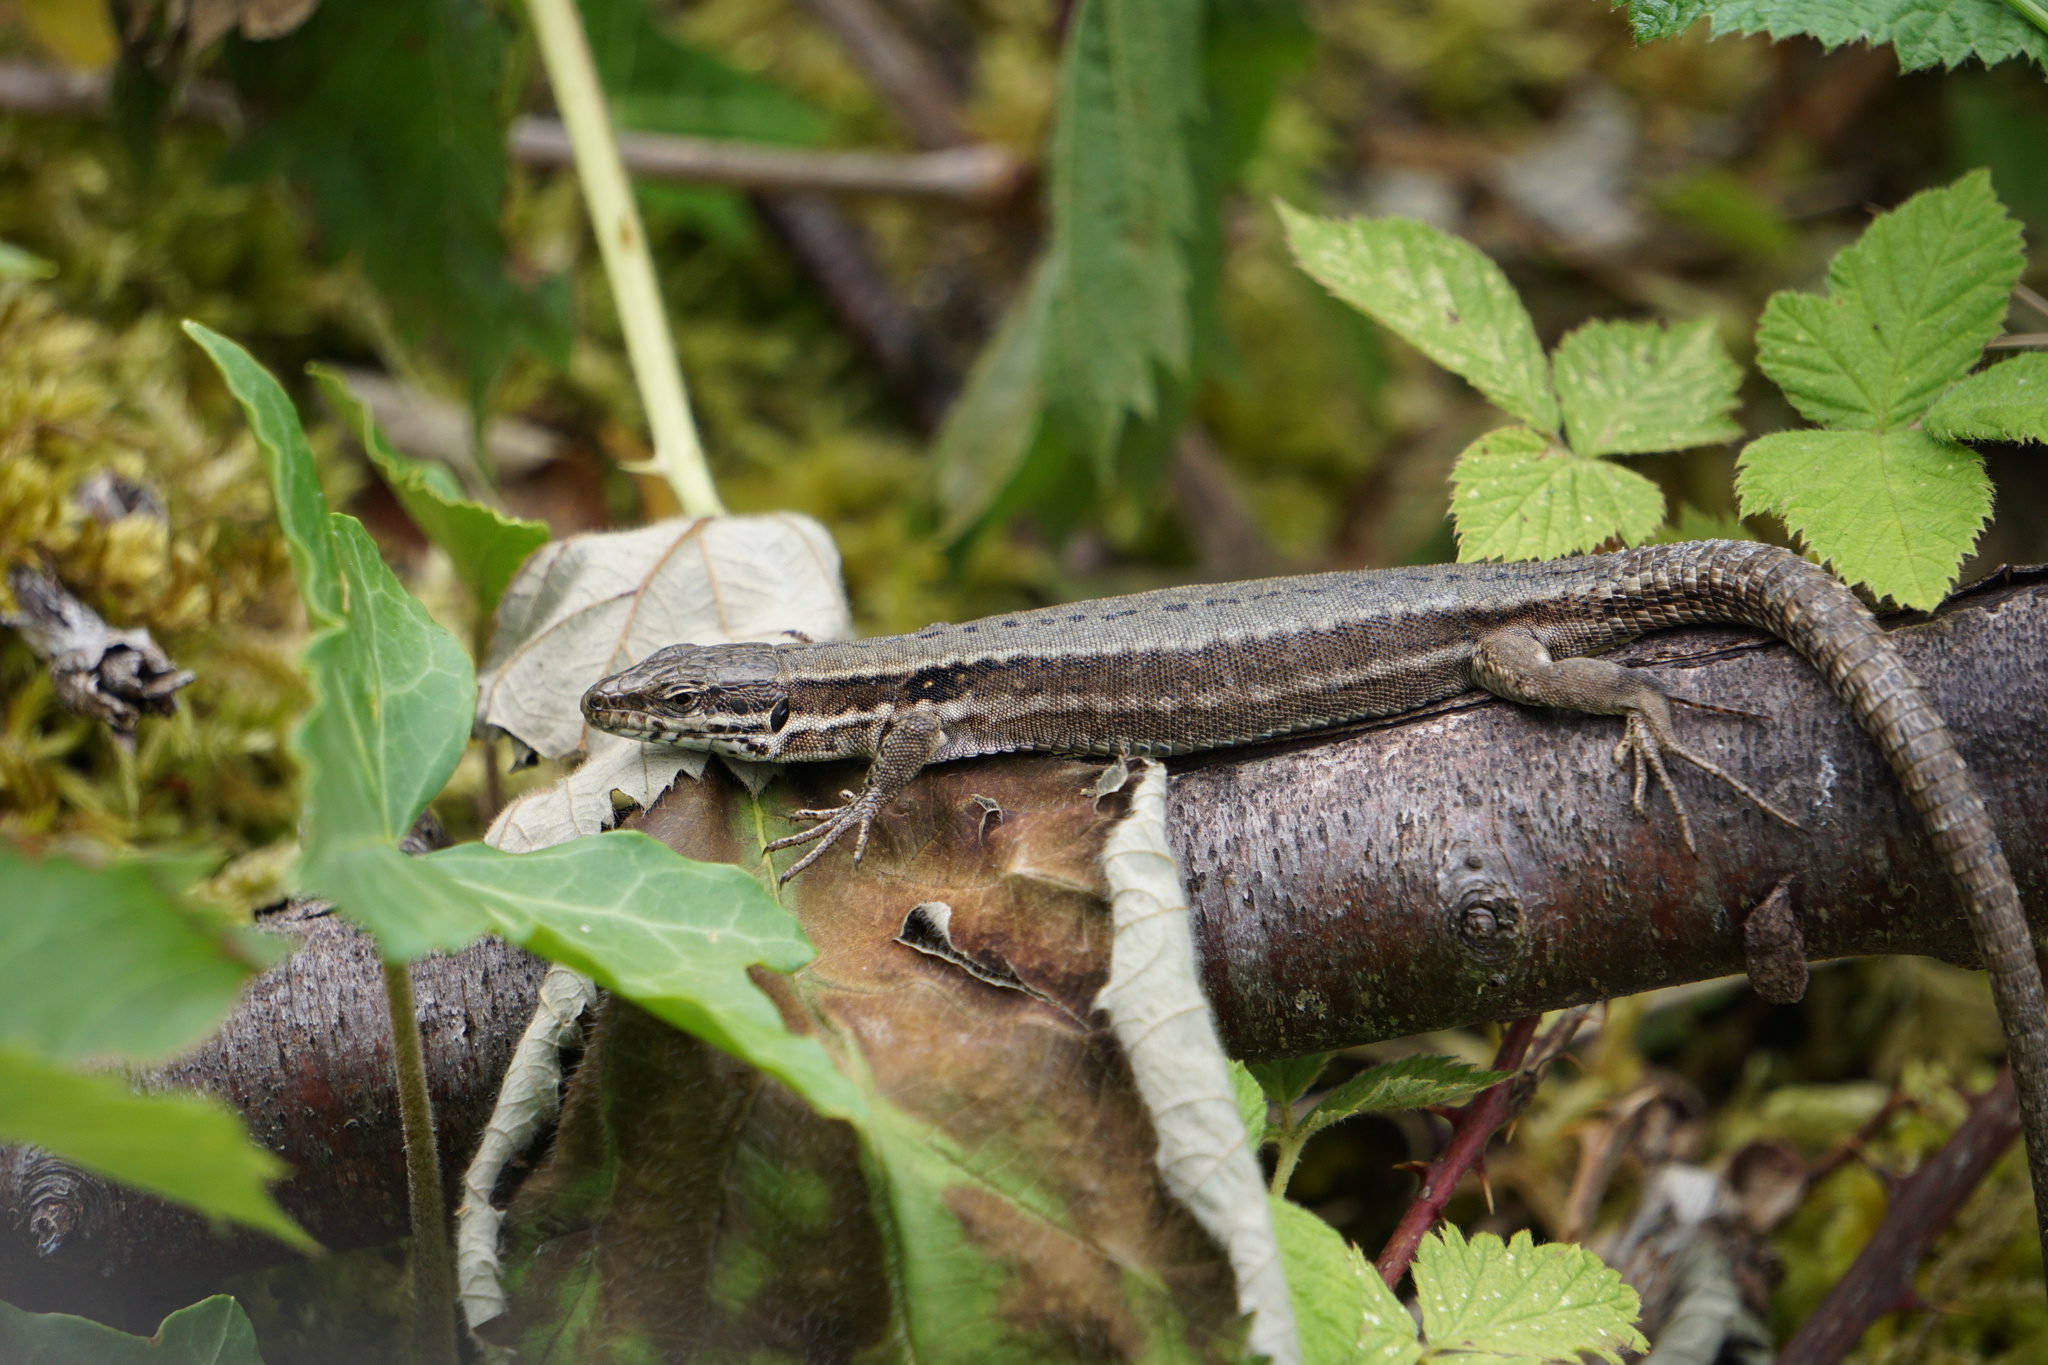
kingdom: Animalia
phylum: Chordata
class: Squamata
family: Lacertidae
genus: Podarcis
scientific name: Podarcis muralis
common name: Common wall lizard
